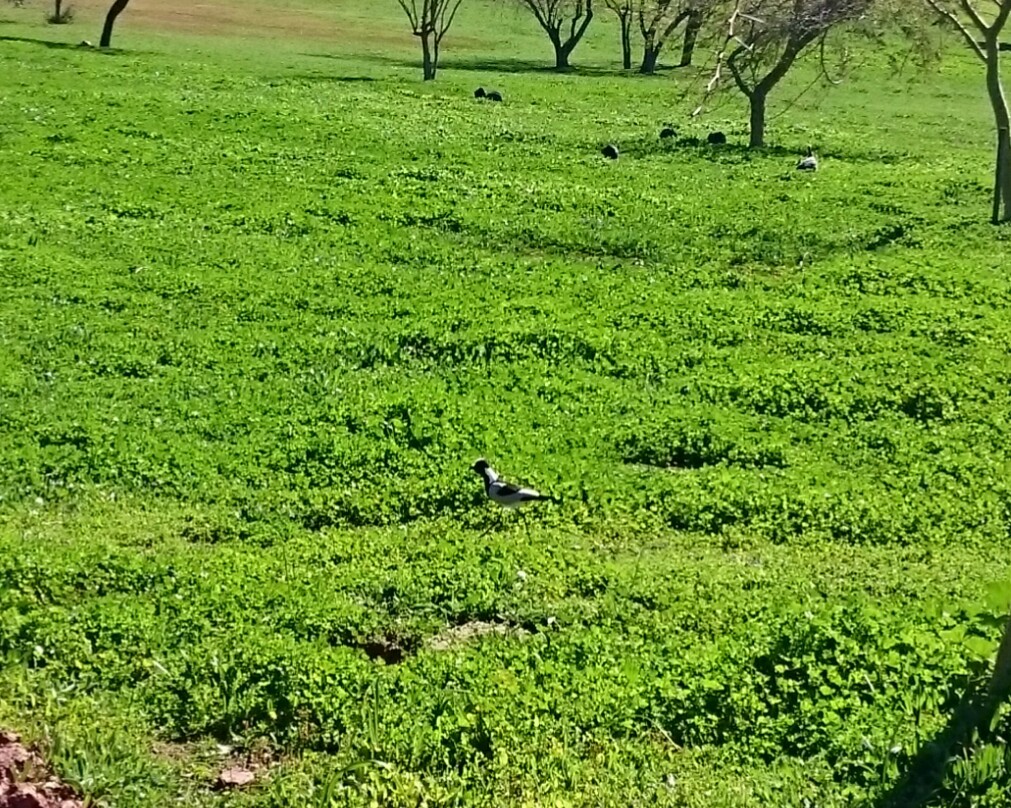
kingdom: Animalia
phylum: Chordata
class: Aves
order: Charadriiformes
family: Charadriidae
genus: Vanellus
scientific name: Vanellus armatus
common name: Blacksmith lapwing
